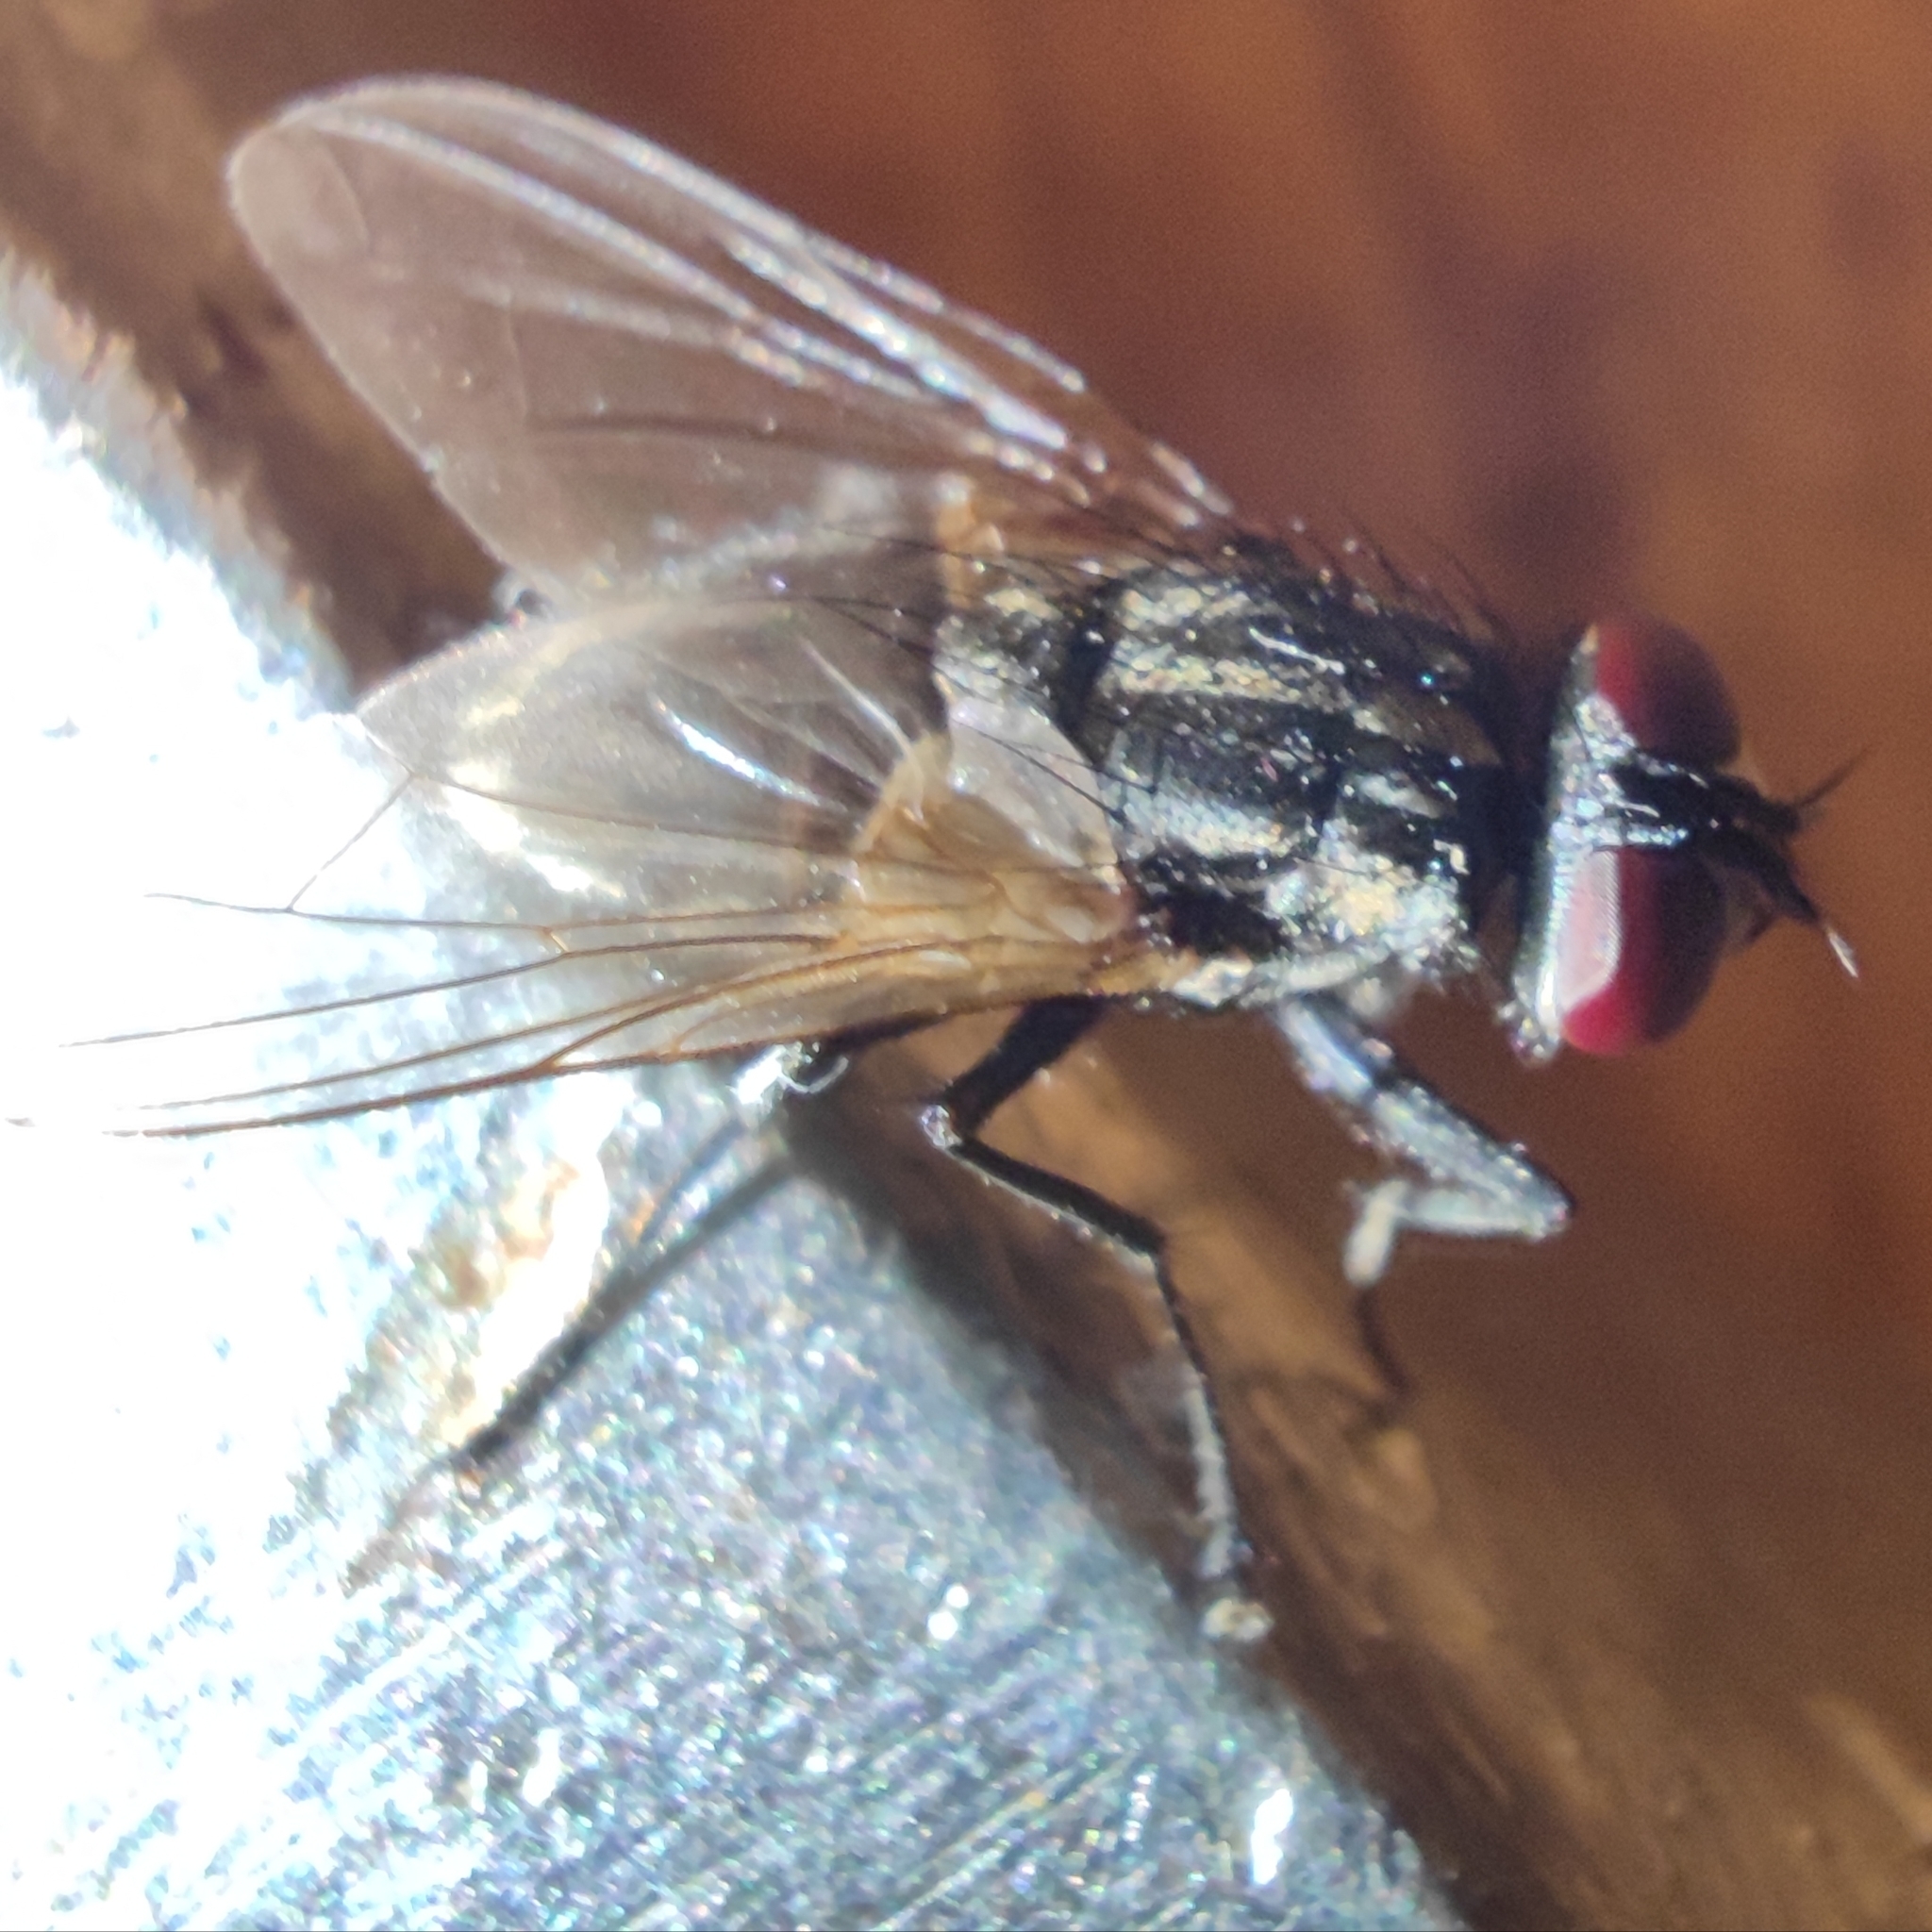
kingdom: Animalia
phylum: Arthropoda
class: Insecta
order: Diptera
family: Muscidae
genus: Musca
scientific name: Musca domestica
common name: House fly
